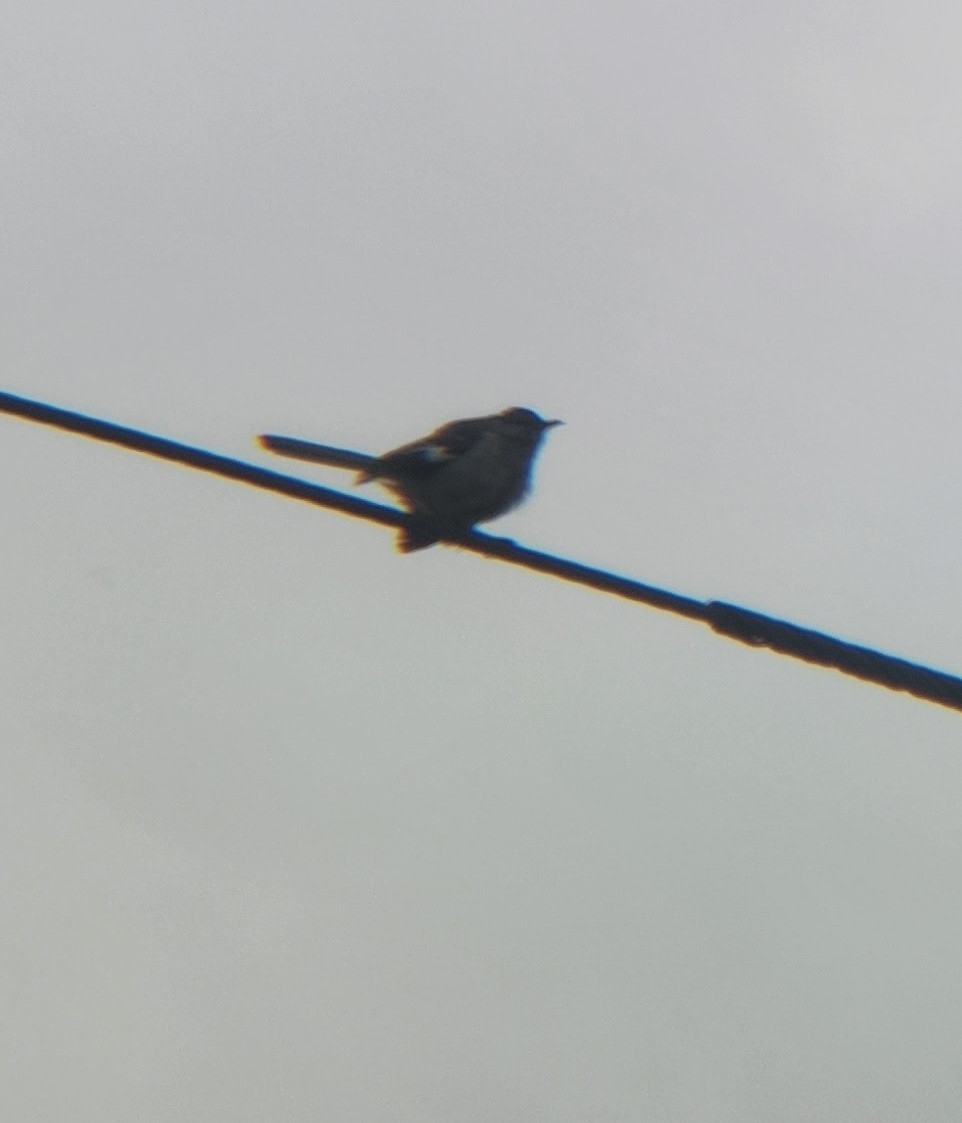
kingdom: Animalia
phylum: Chordata
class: Aves
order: Passeriformes
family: Mimidae
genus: Mimus
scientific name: Mimus polyglottos
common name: Northern mockingbird
